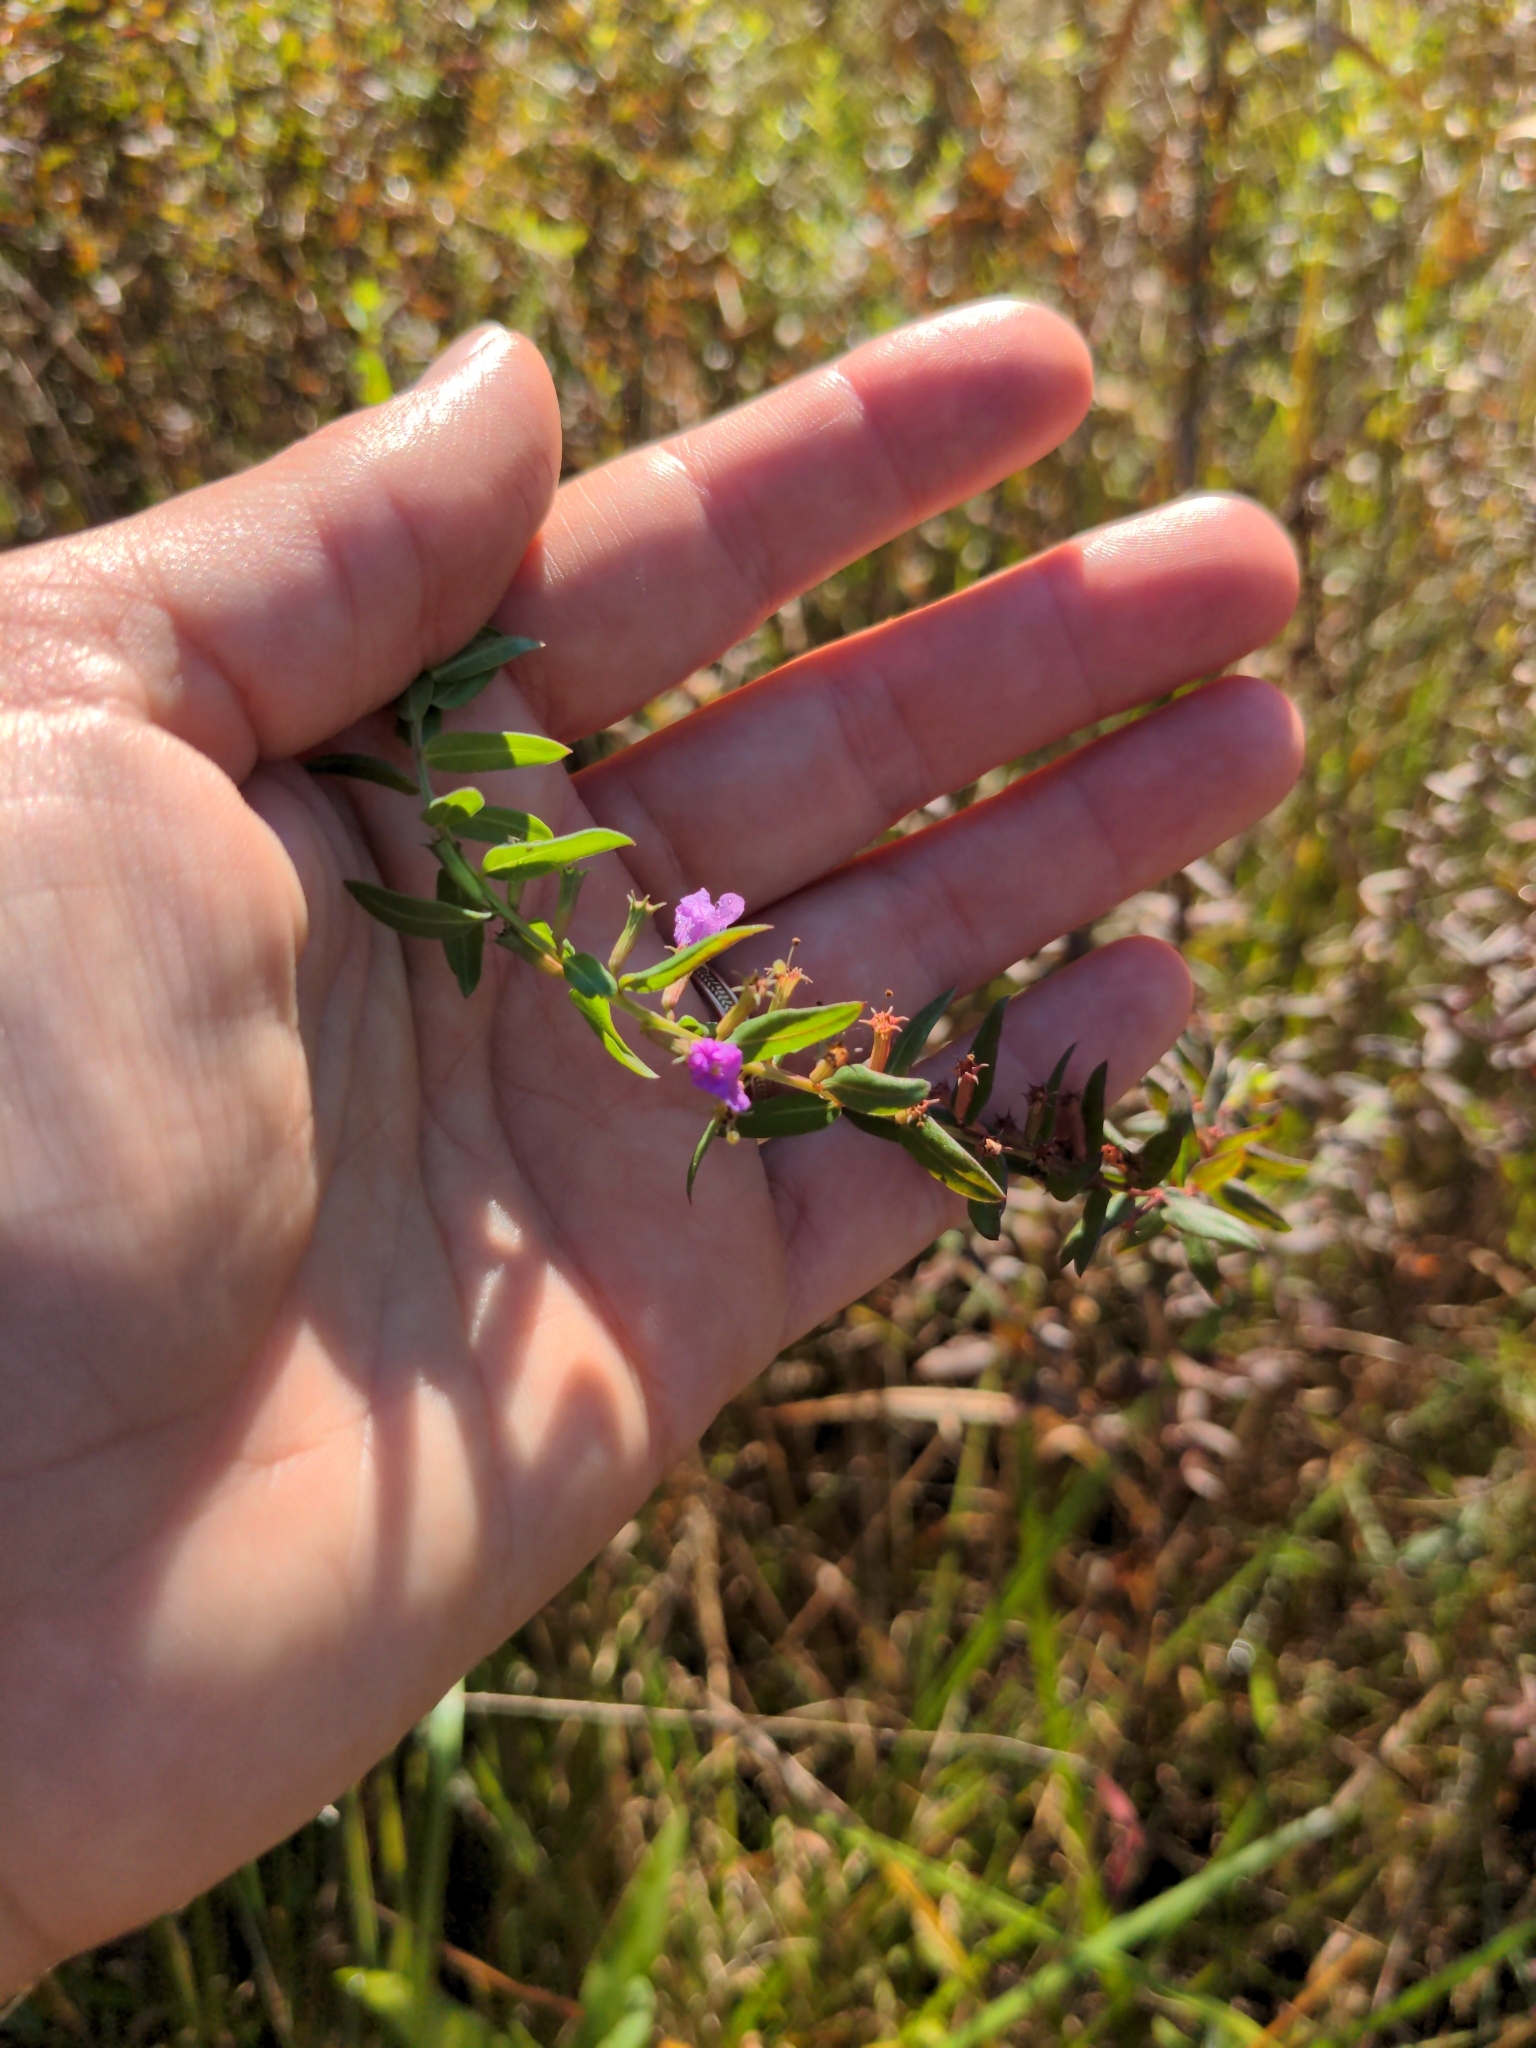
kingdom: Plantae
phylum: Tracheophyta
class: Magnoliopsida
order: Myrtales
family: Lythraceae
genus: Lythrum
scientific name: Lythrum alatum
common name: Winged loosestrife
